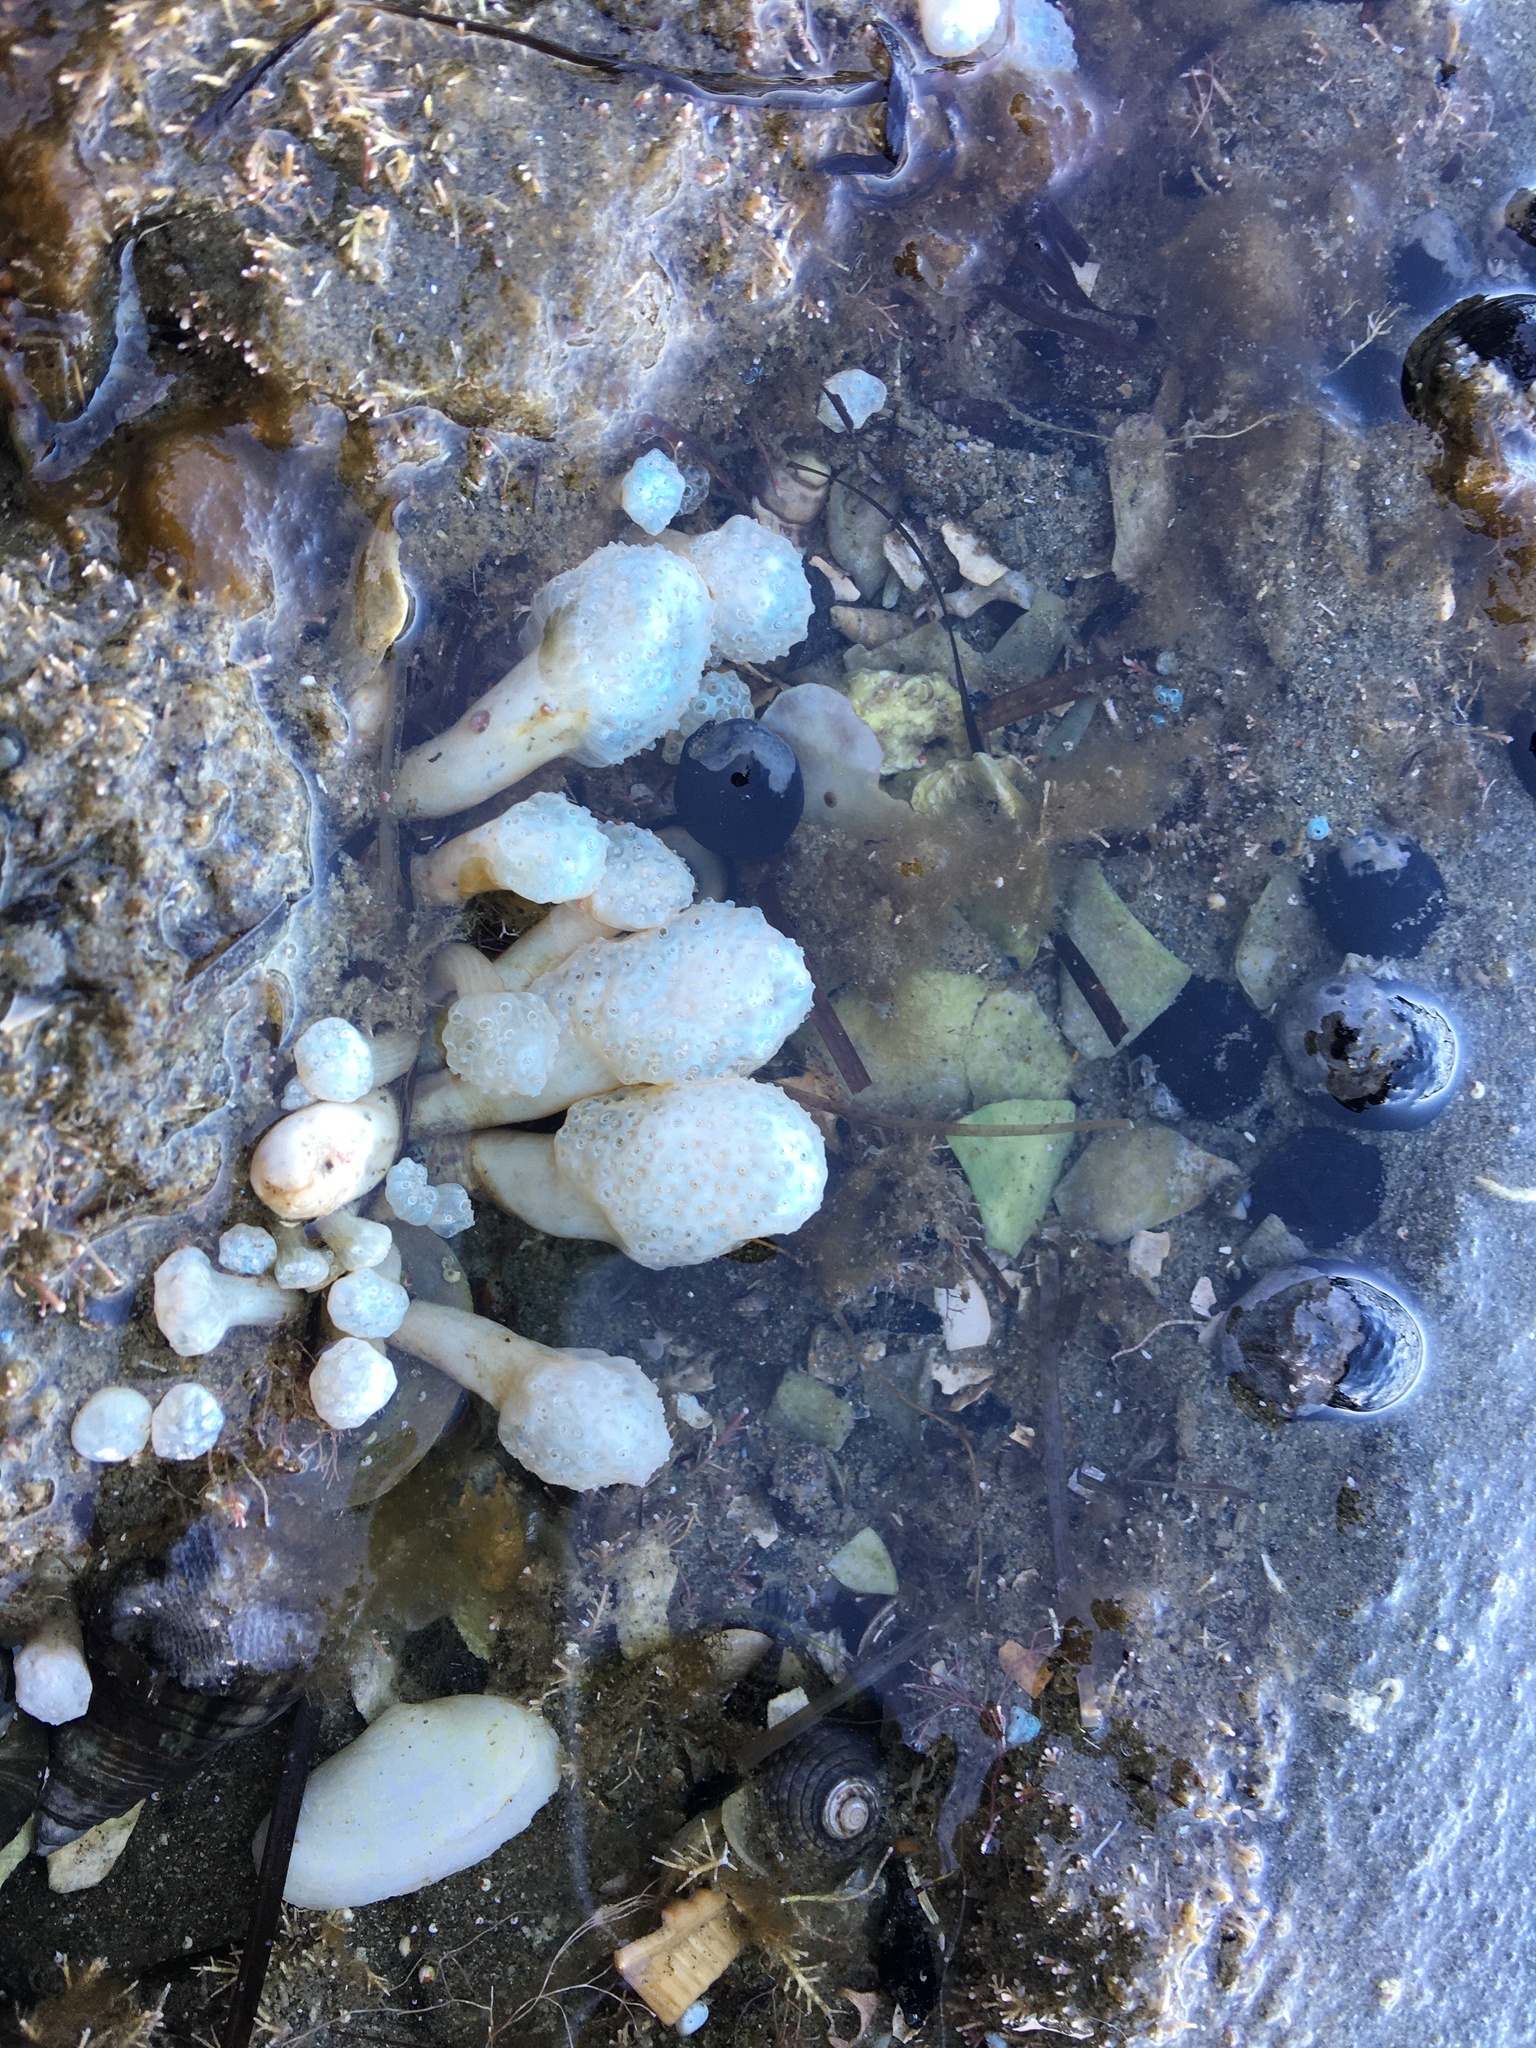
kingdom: Animalia
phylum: Chordata
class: Ascidiacea
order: Aplousobranchia
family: Polycitoridae
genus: Eudistoma
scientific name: Eudistoma elongatum
